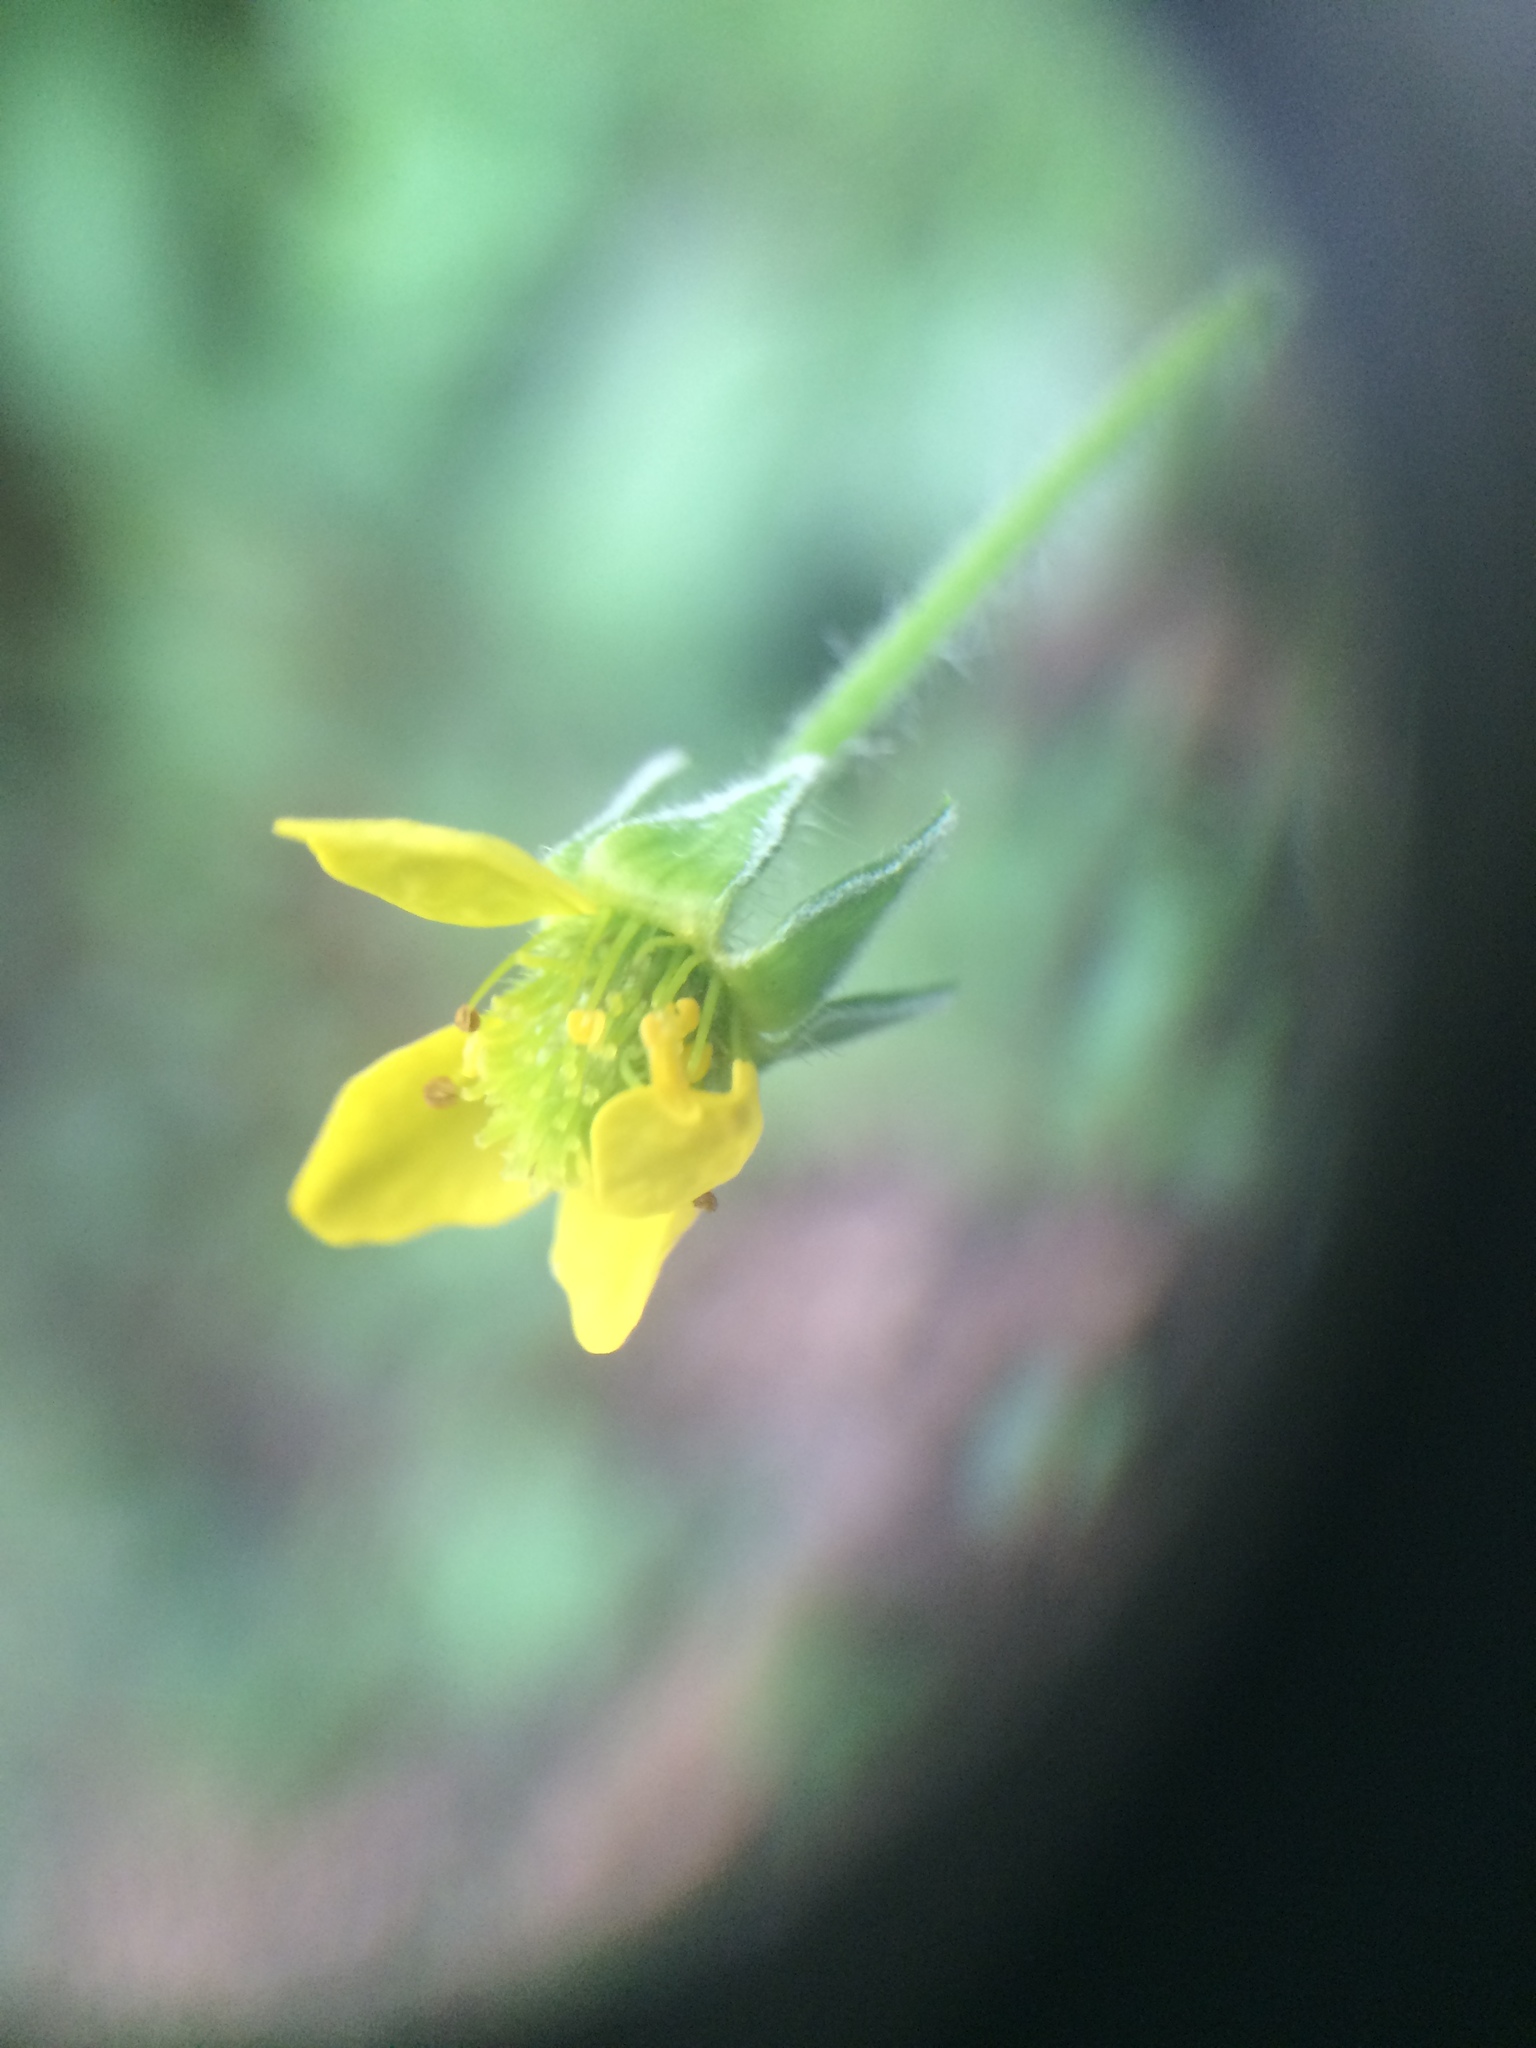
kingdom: Plantae
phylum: Tracheophyta
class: Magnoliopsida
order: Rosales
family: Rosaceae
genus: Geum
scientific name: Geum urbanum
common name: Wood avens
